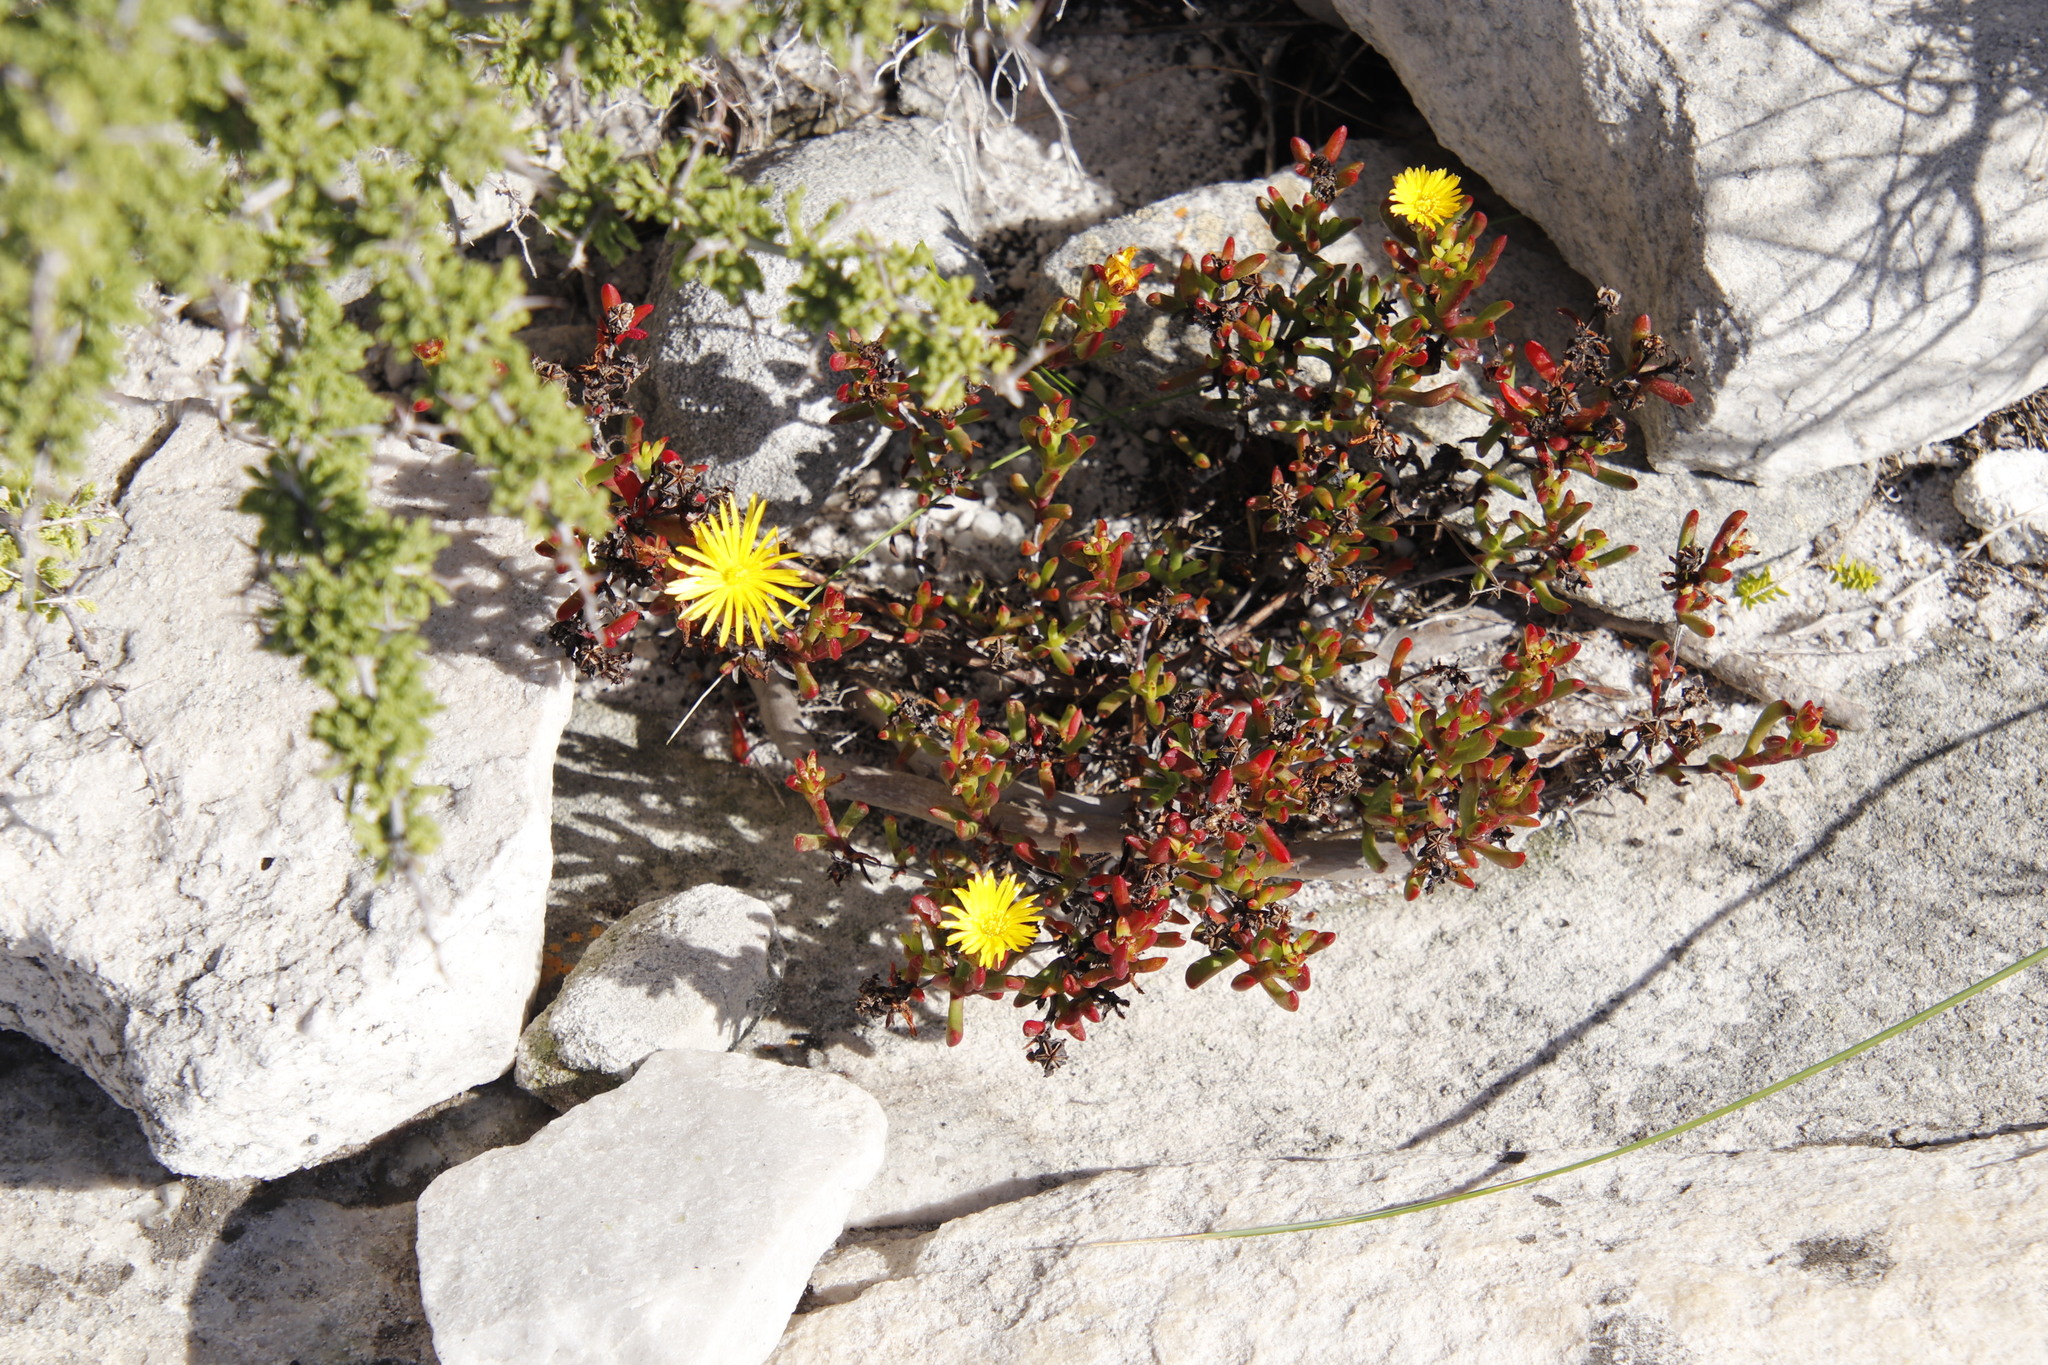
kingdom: Plantae
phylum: Tracheophyta
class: Magnoliopsida
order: Caryophyllales
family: Aizoaceae
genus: Lampranthus
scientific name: Lampranthus promontorii
